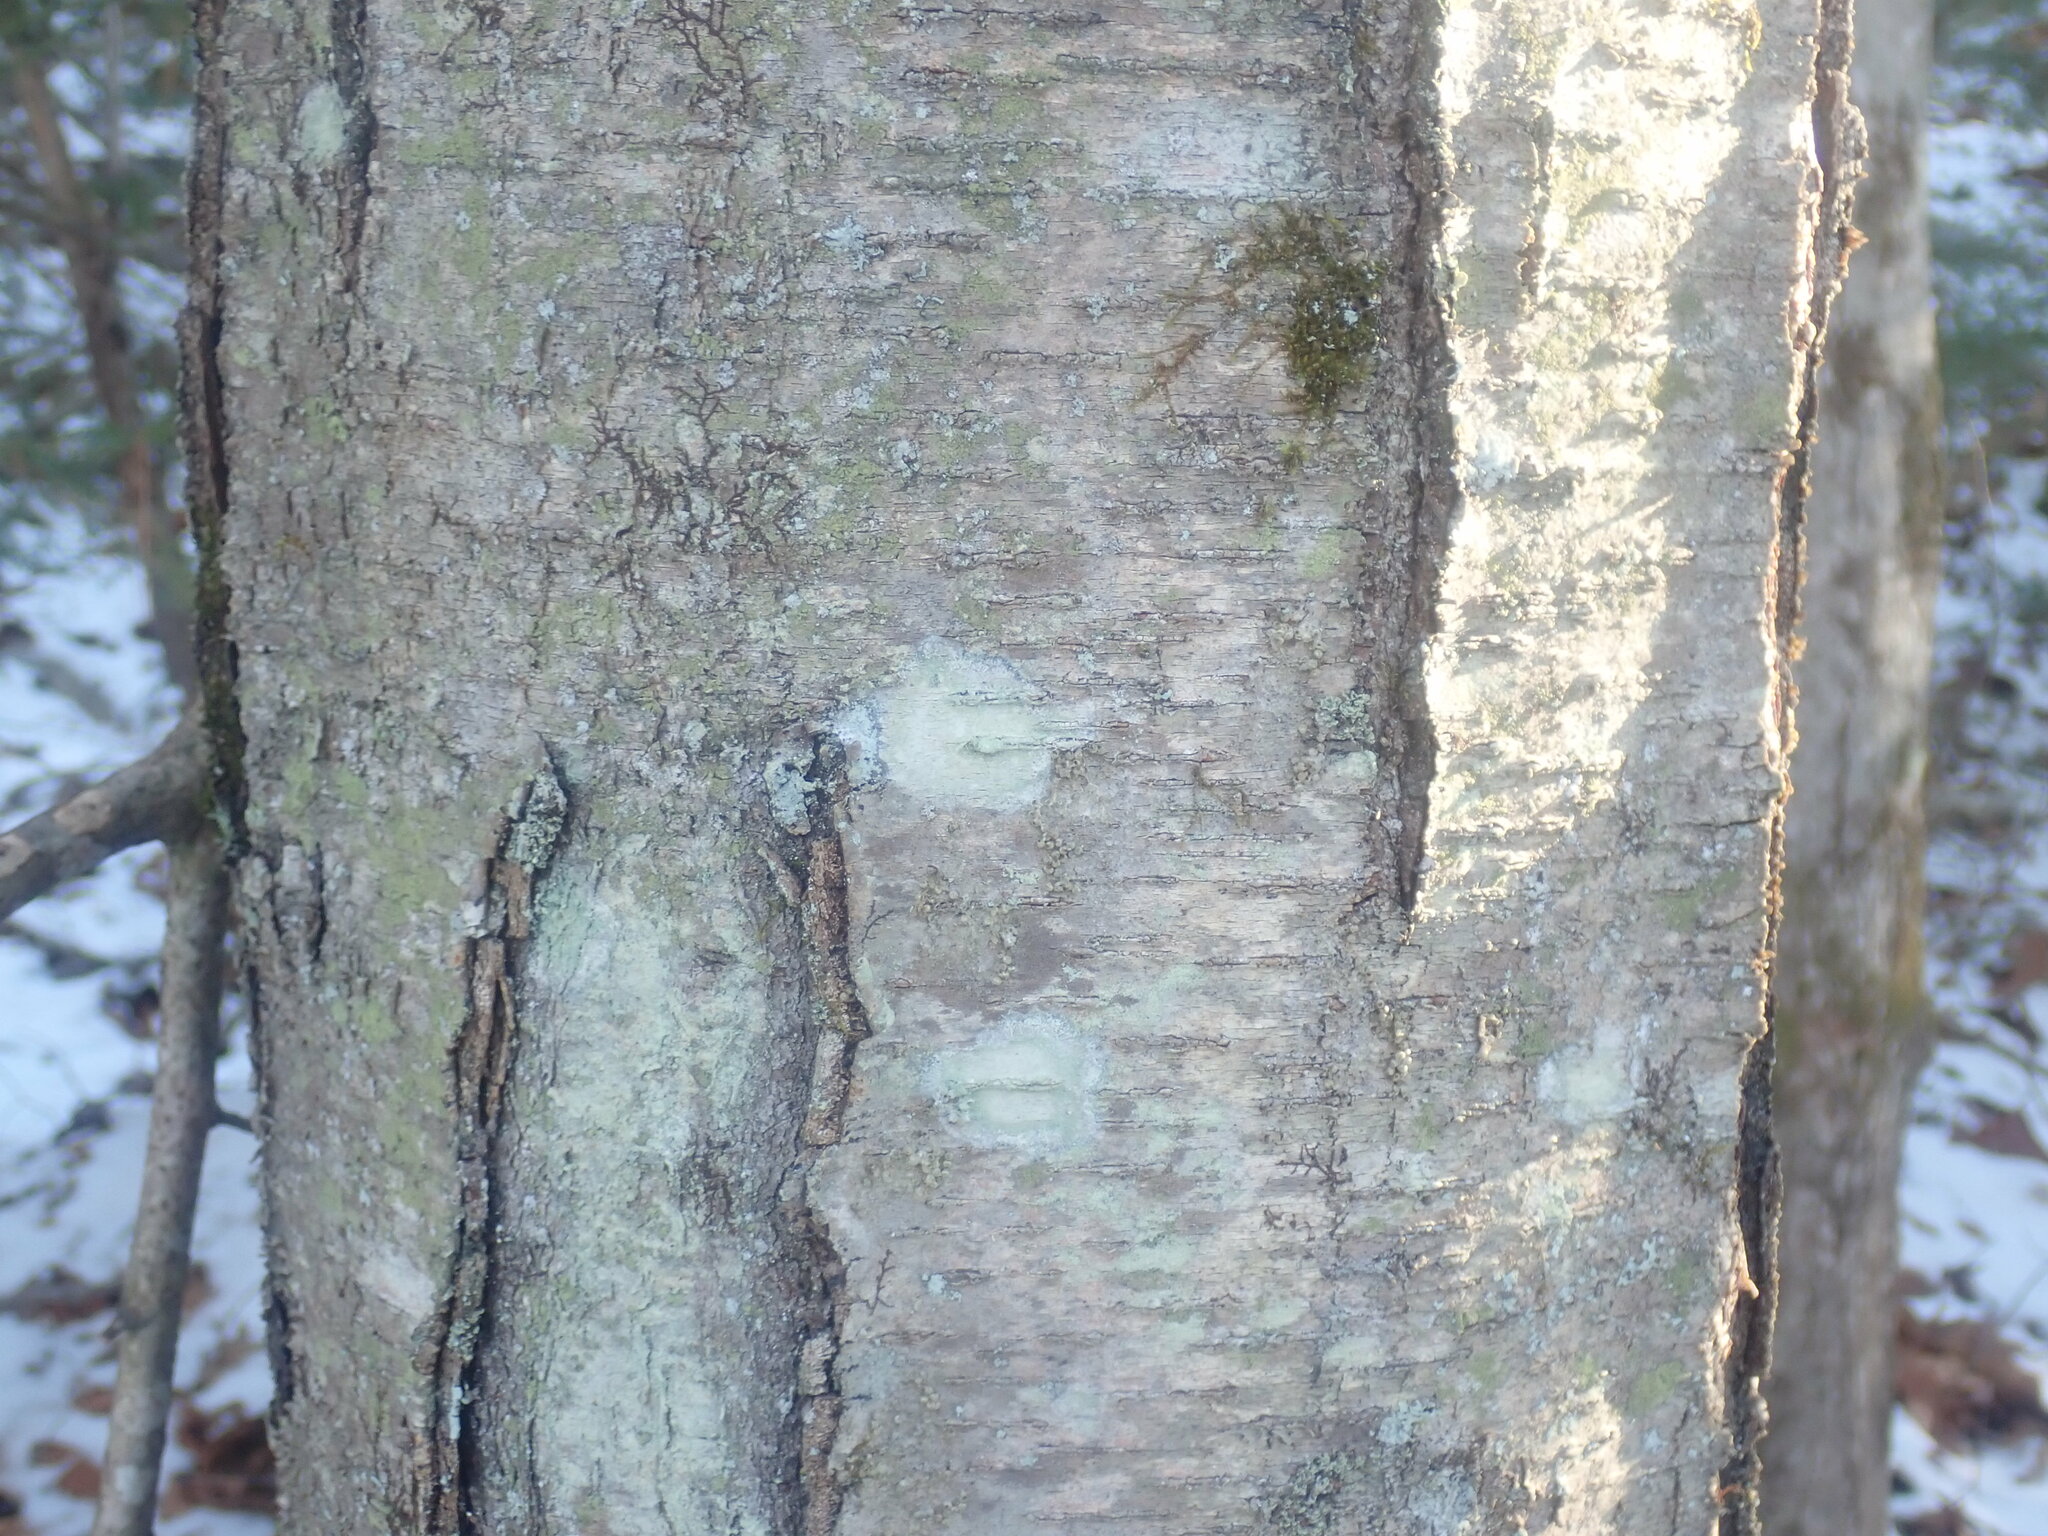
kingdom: Plantae
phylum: Tracheophyta
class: Magnoliopsida
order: Fagales
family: Betulaceae
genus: Betula
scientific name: Betula lenta
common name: Black birch
